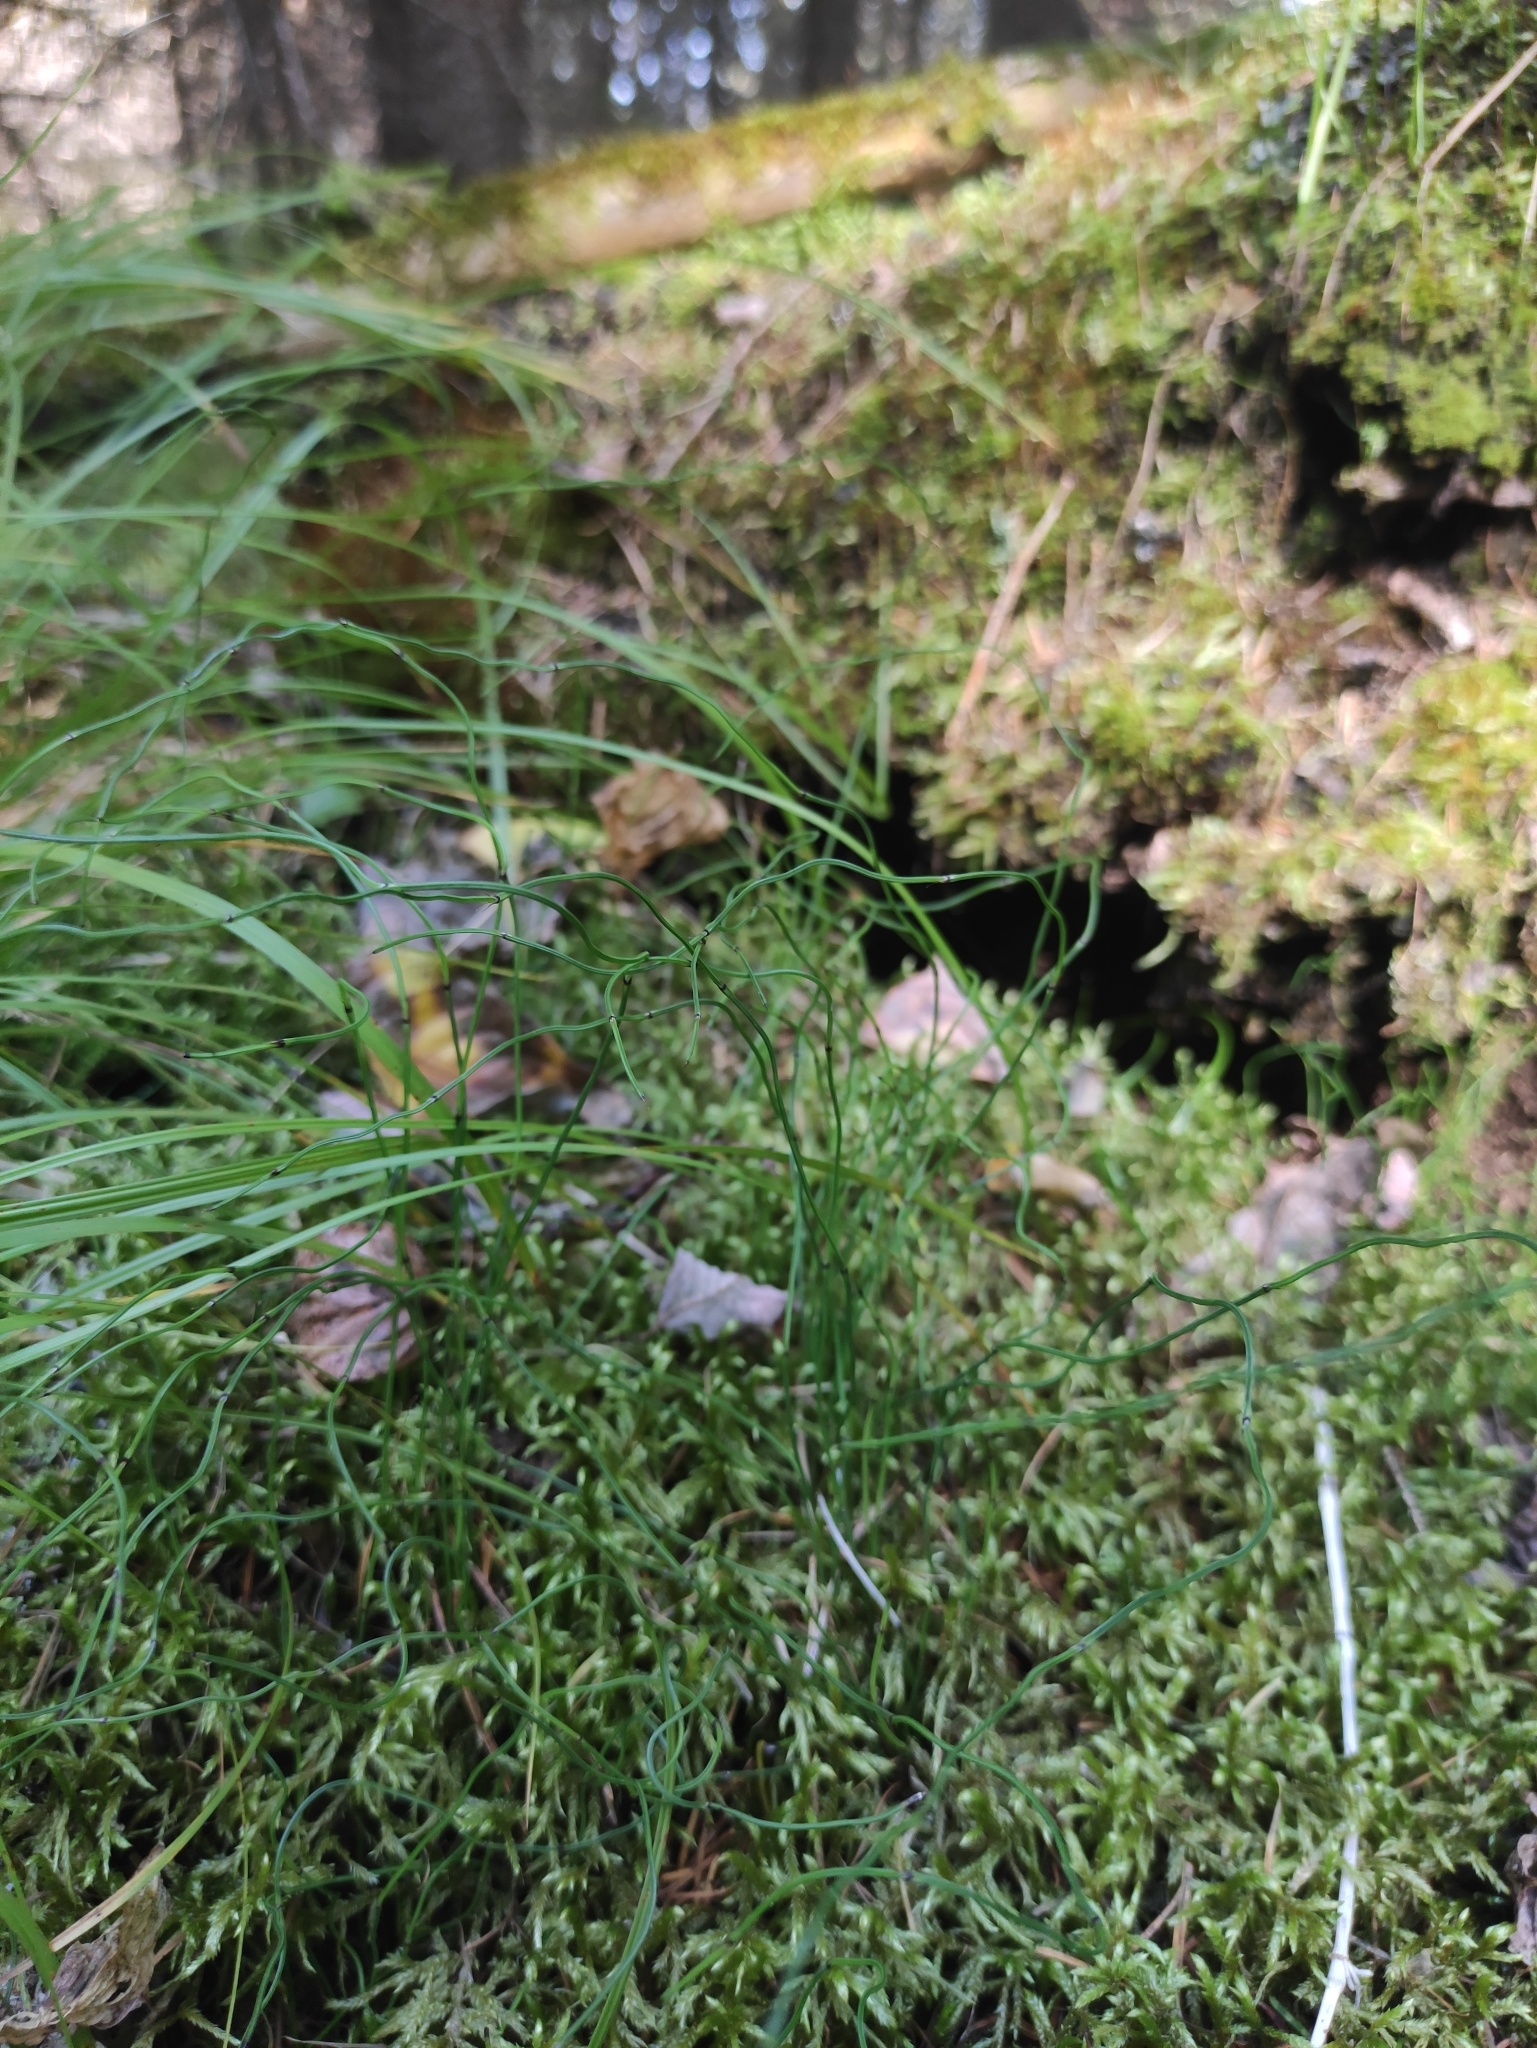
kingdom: Plantae
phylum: Tracheophyta
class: Polypodiopsida
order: Equisetales
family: Equisetaceae
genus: Equisetum
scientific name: Equisetum scirpoides
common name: Delicate horsetail
